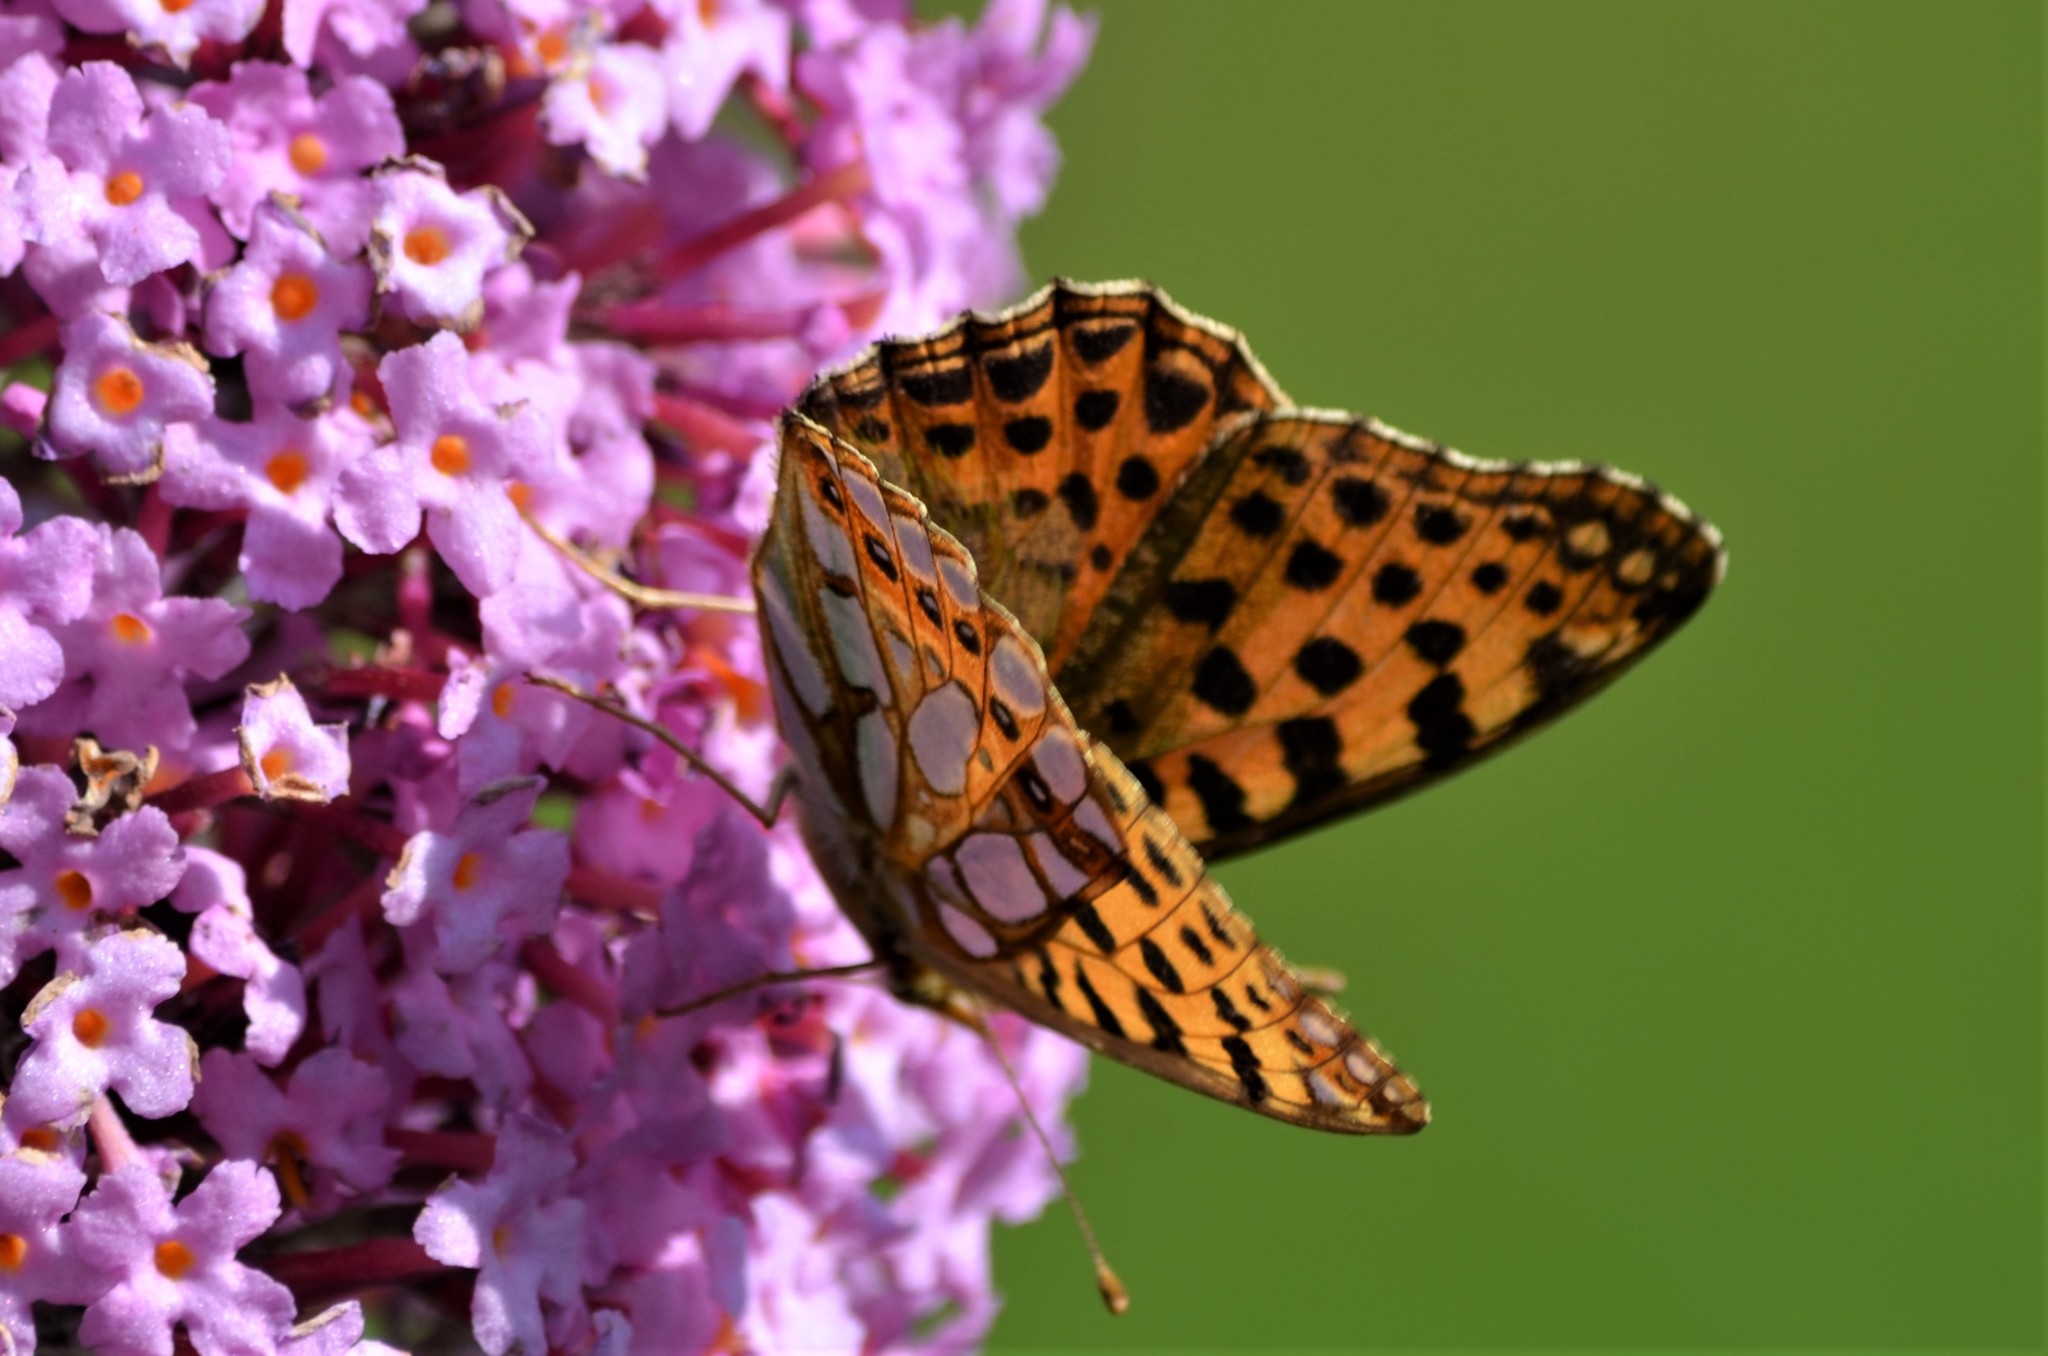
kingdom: Animalia
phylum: Arthropoda
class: Insecta
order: Lepidoptera
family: Nymphalidae
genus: Issoria
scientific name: Issoria lathonia
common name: Queen of spain fritillary
